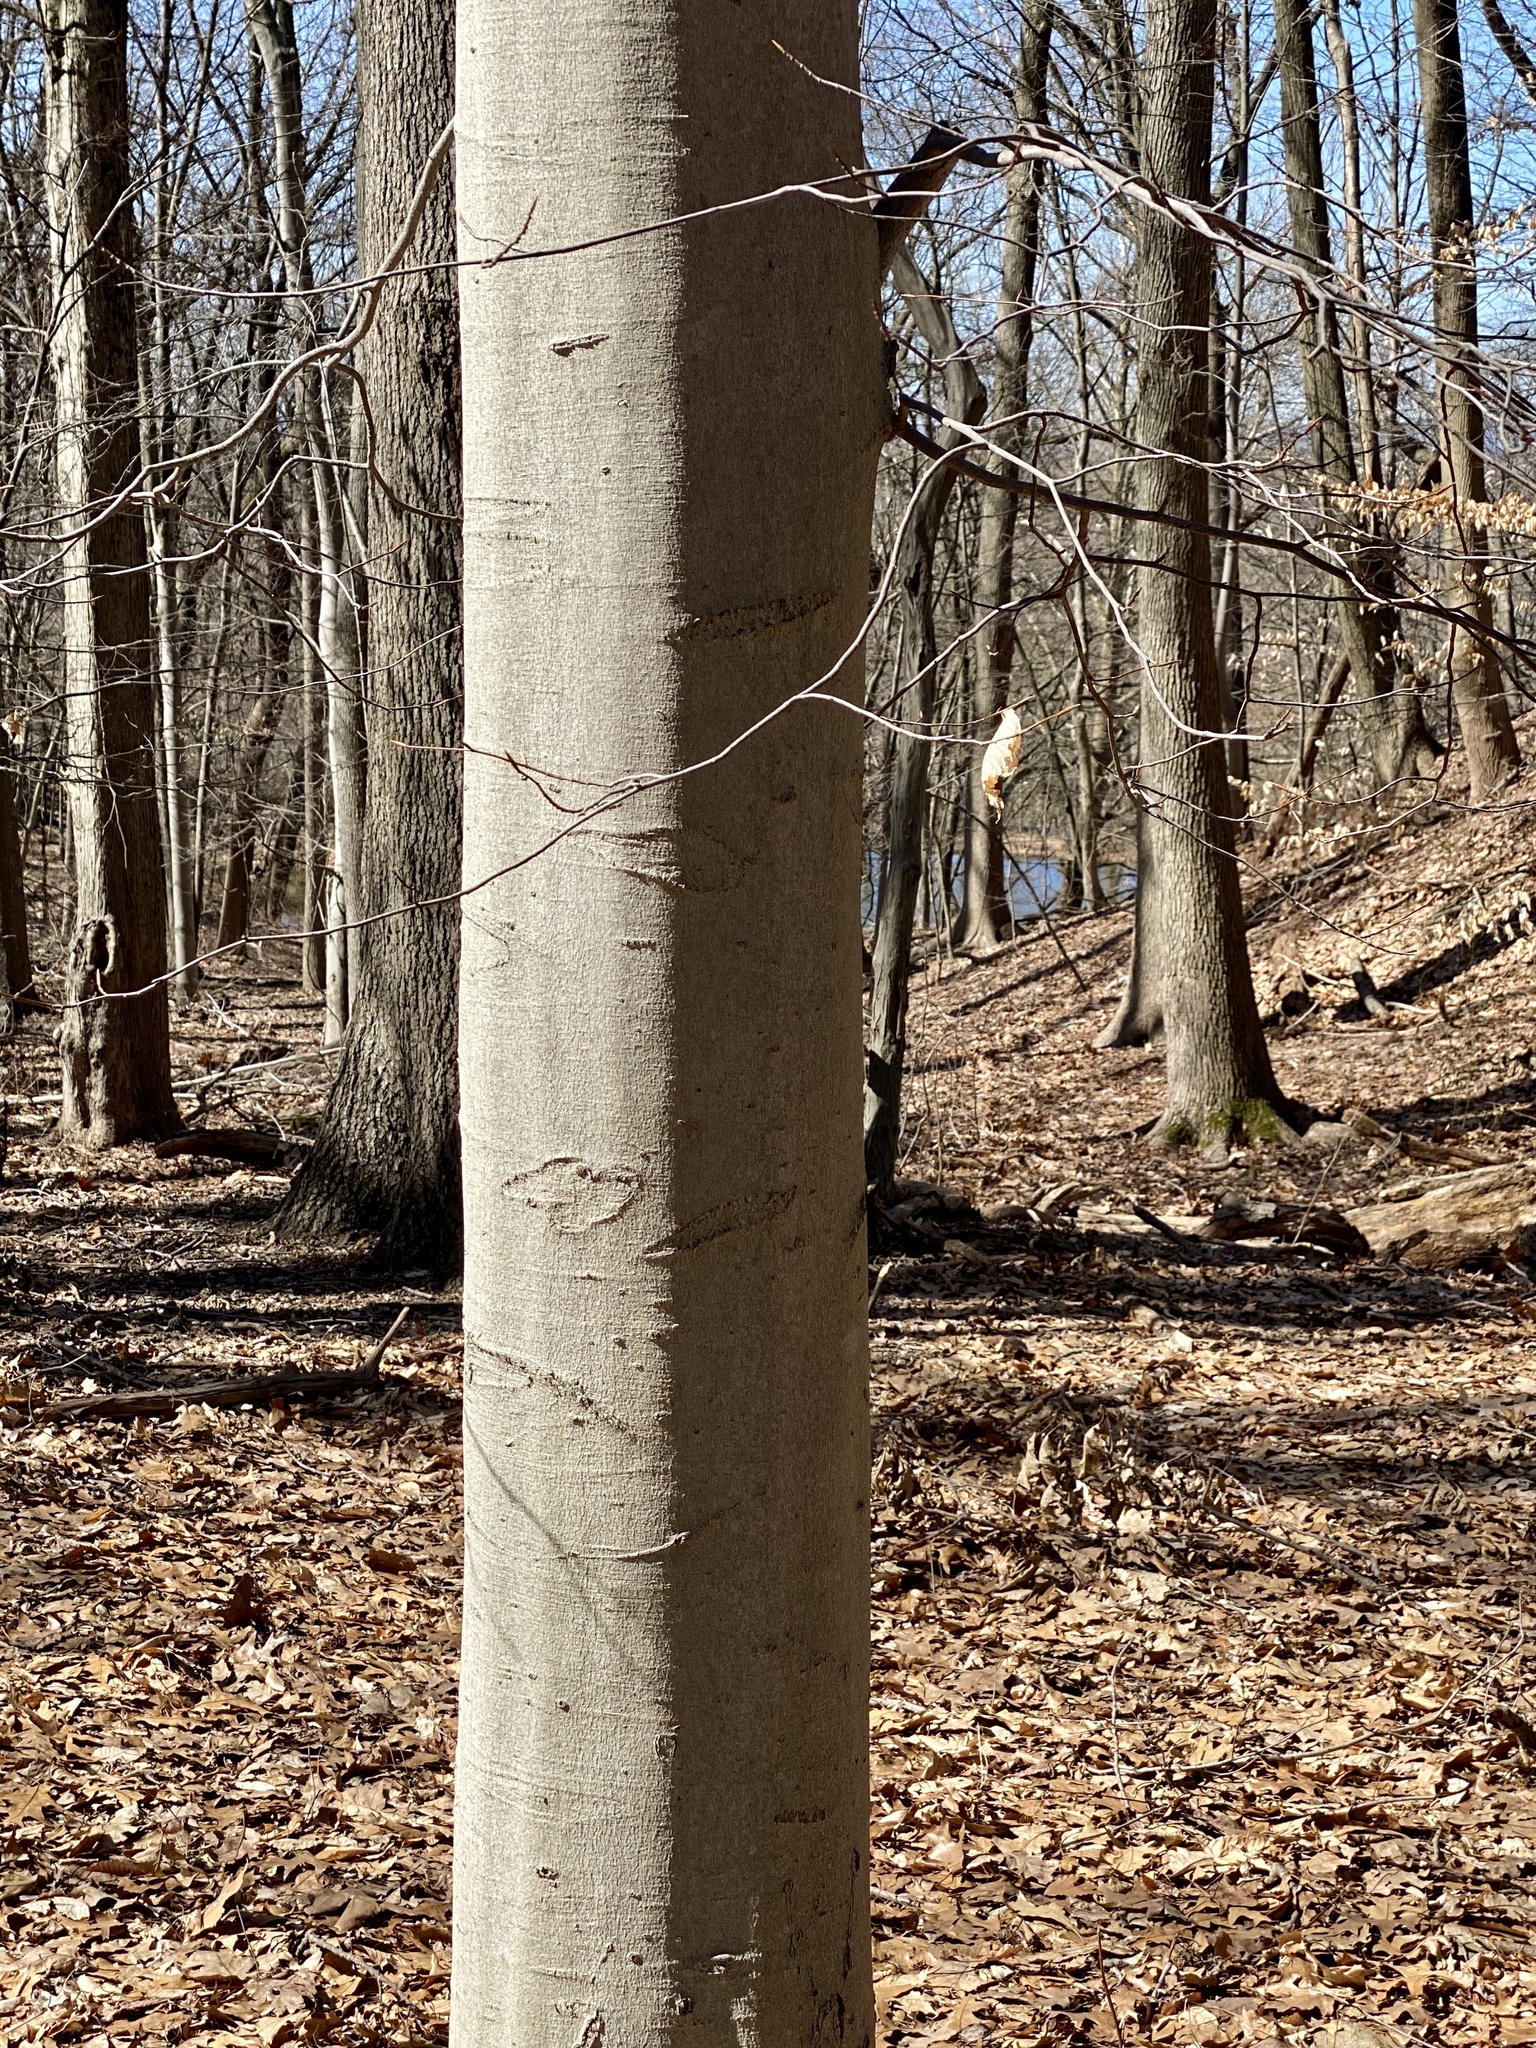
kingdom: Plantae
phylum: Tracheophyta
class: Magnoliopsida
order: Fagales
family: Fagaceae
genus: Fagus
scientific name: Fagus grandifolia
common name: American beech
